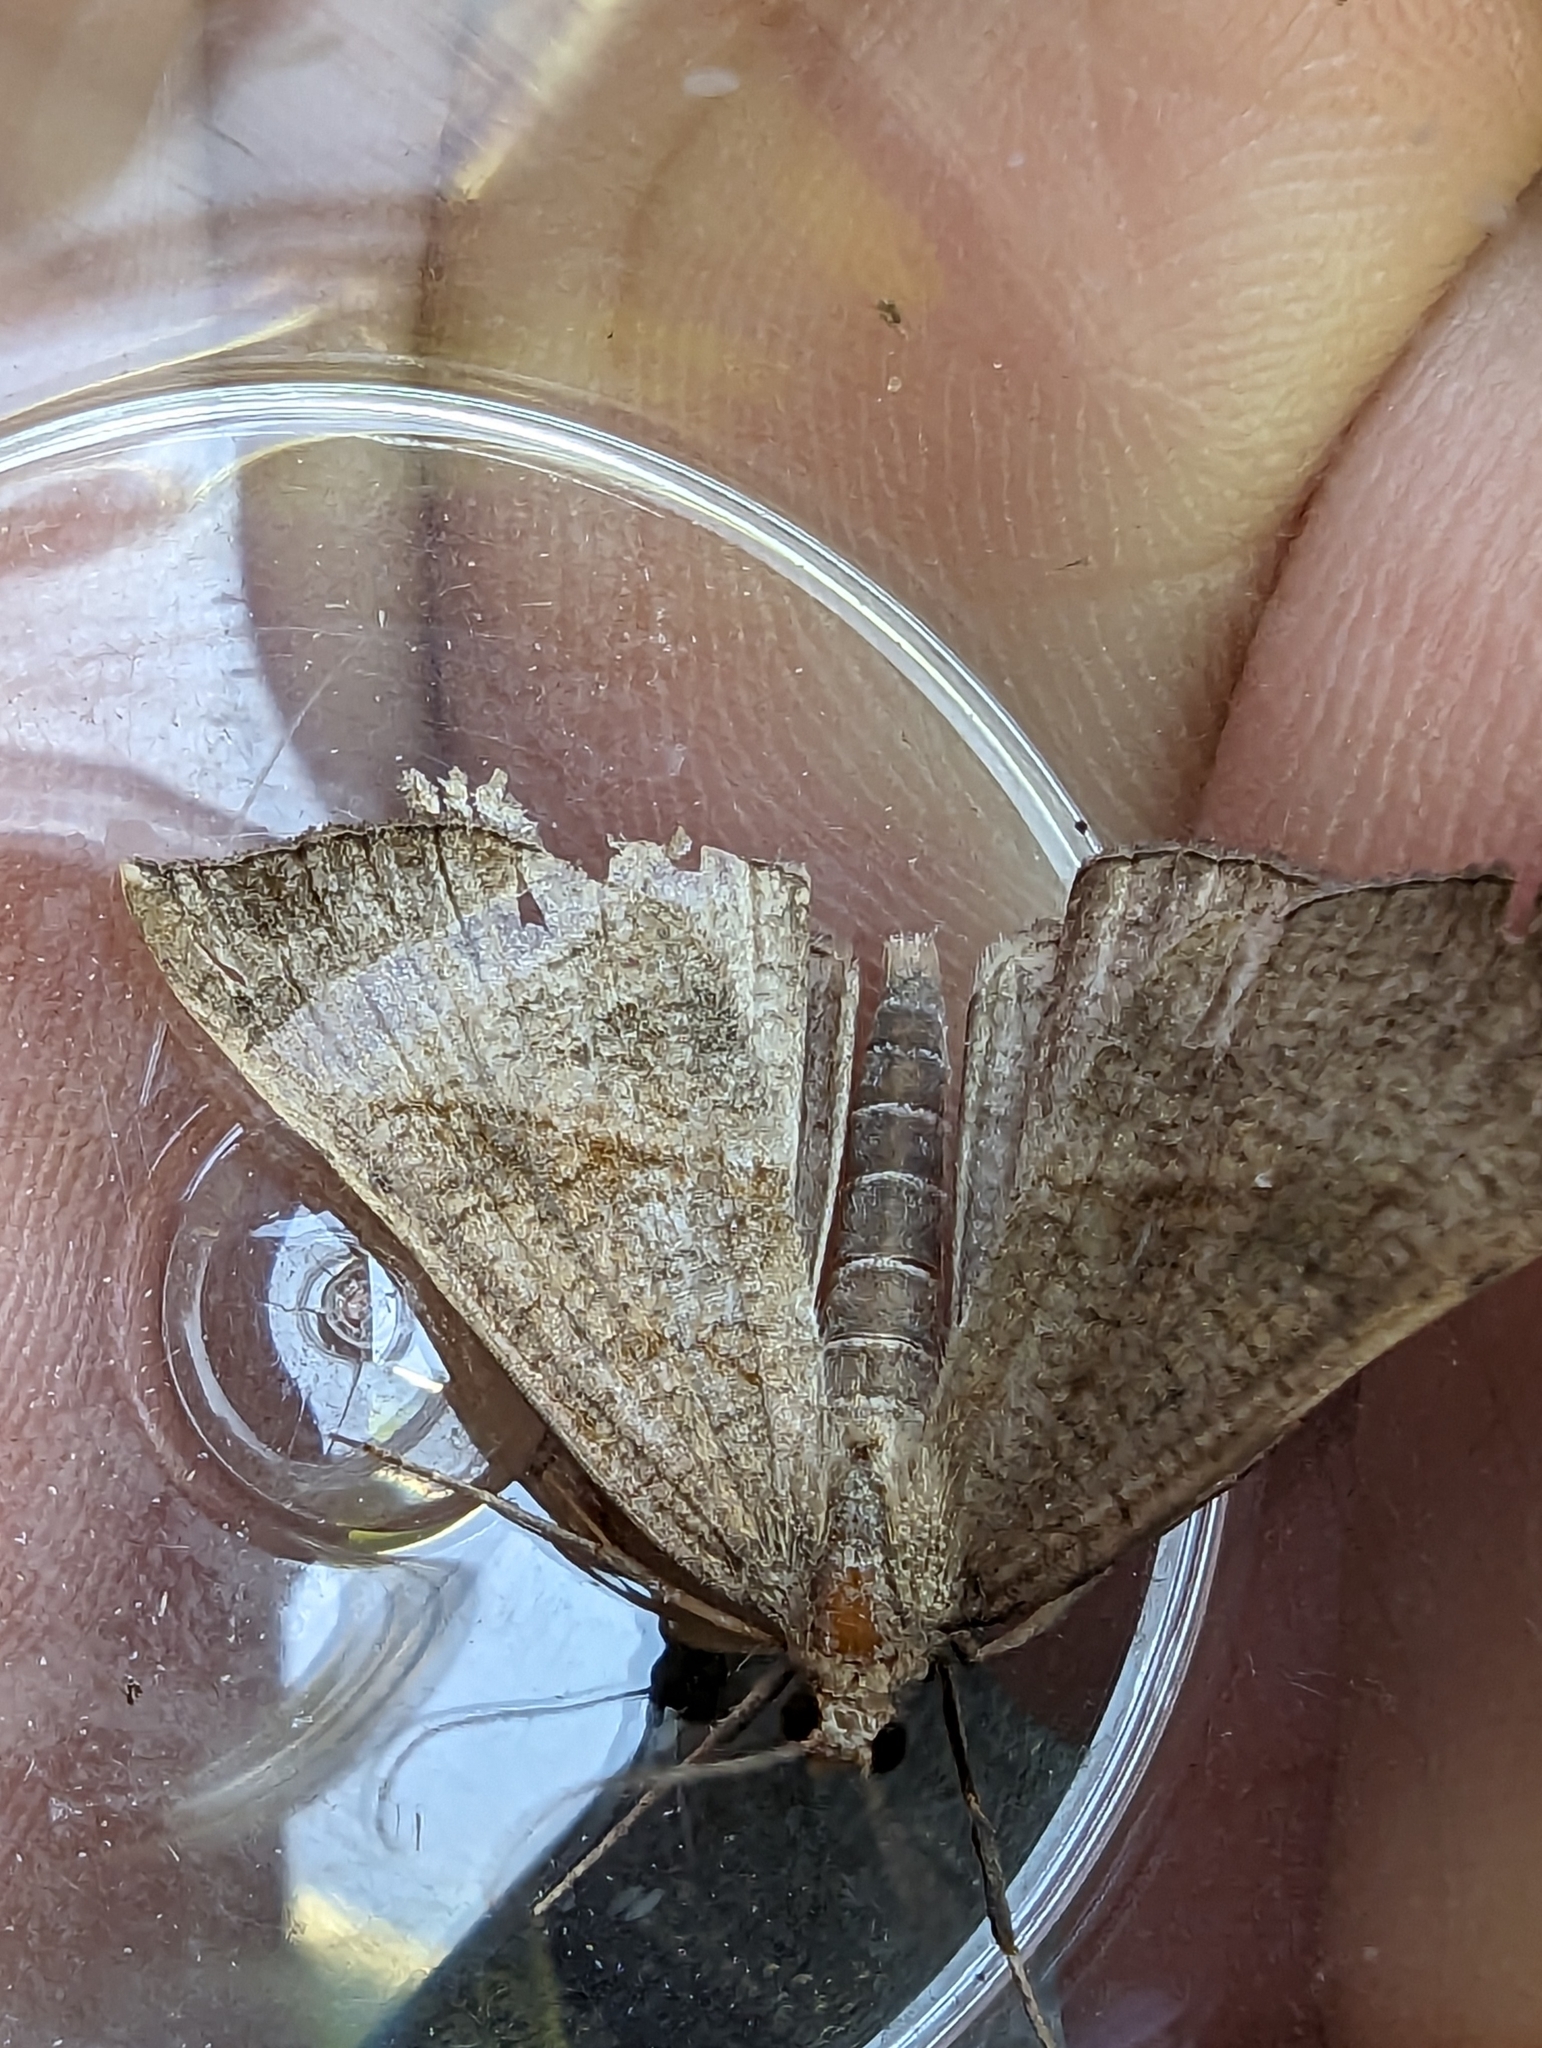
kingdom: Animalia
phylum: Arthropoda
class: Insecta
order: Lepidoptera
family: Erebidae
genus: Hypena
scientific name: Hypena proboscidalis
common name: Snout
